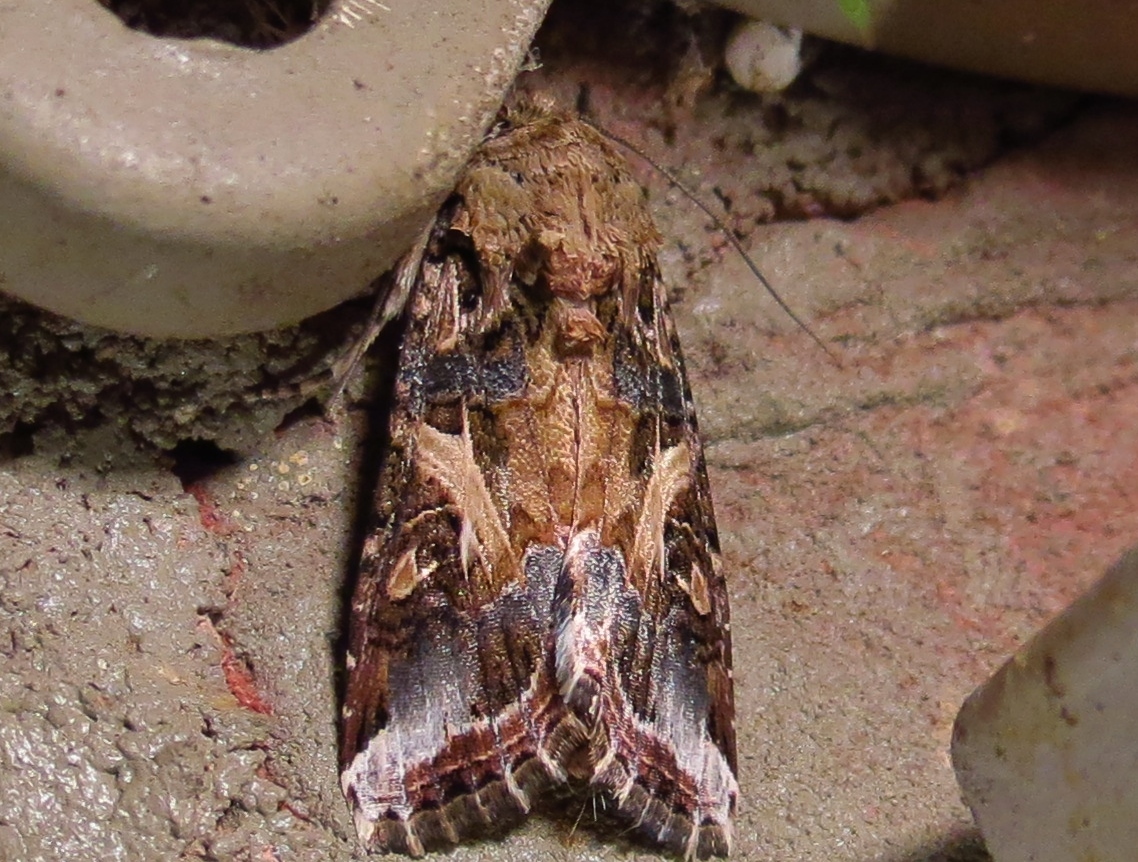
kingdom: Animalia
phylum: Arthropoda
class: Insecta
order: Lepidoptera
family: Noctuidae
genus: Spodoptera
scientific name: Spodoptera ornithogalli
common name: Yellow-striped armyworm
